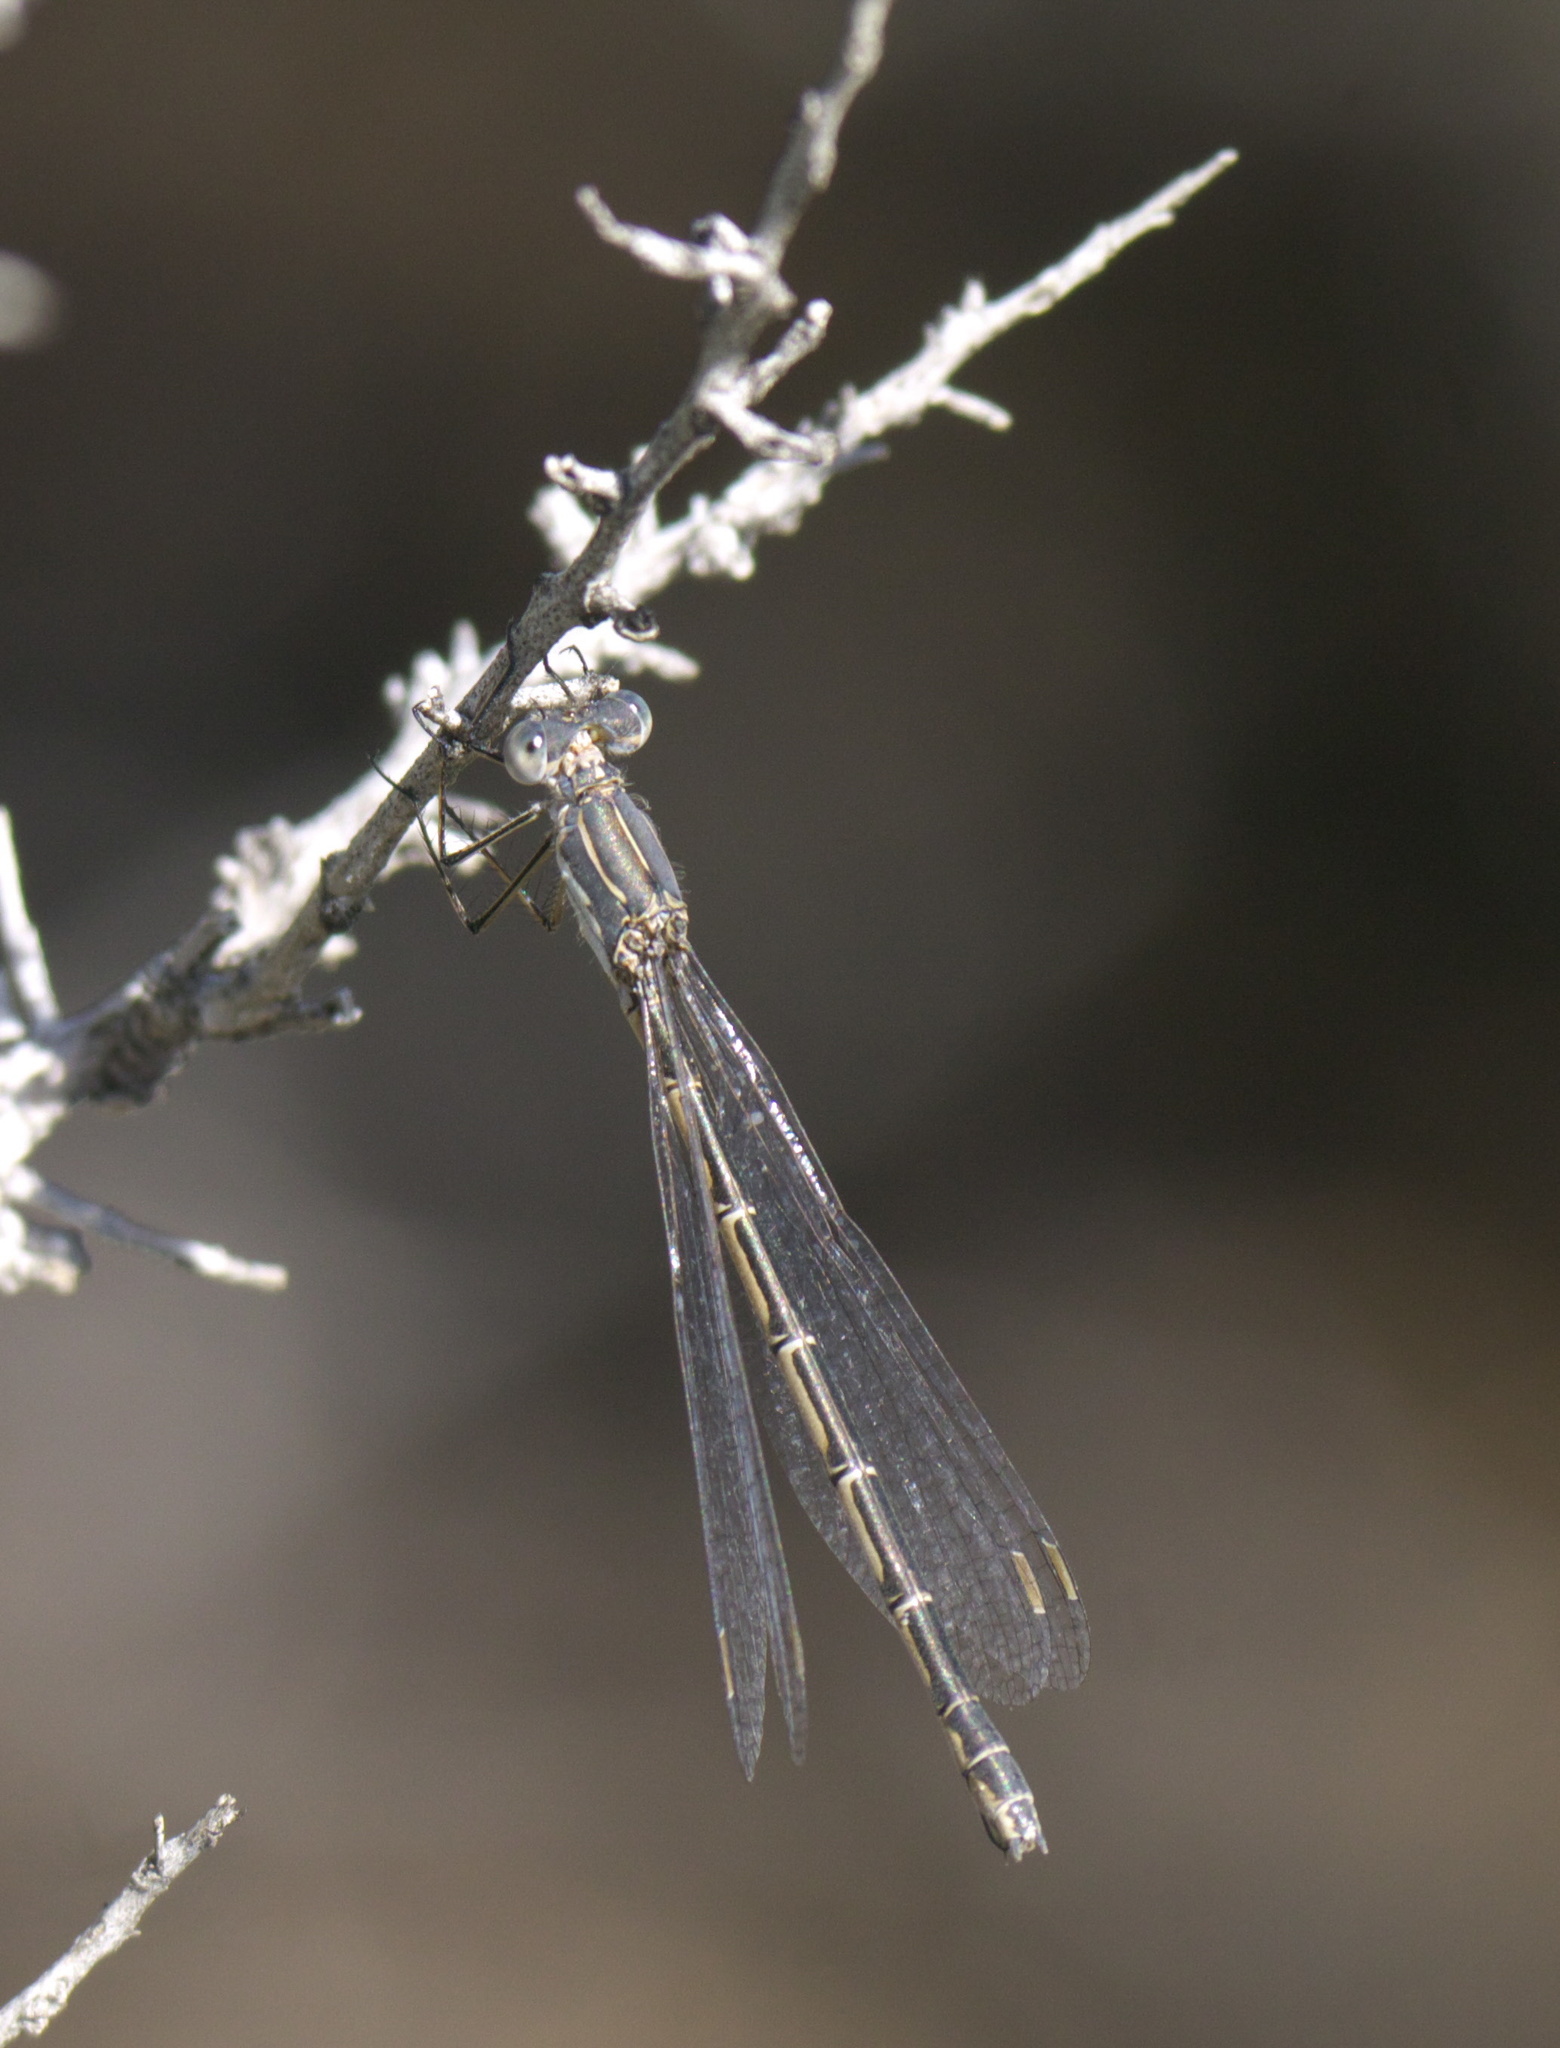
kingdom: Animalia
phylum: Arthropoda
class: Insecta
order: Odonata
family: Lestidae
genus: Lestes
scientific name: Lestes congener
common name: Spotted spreadwing
